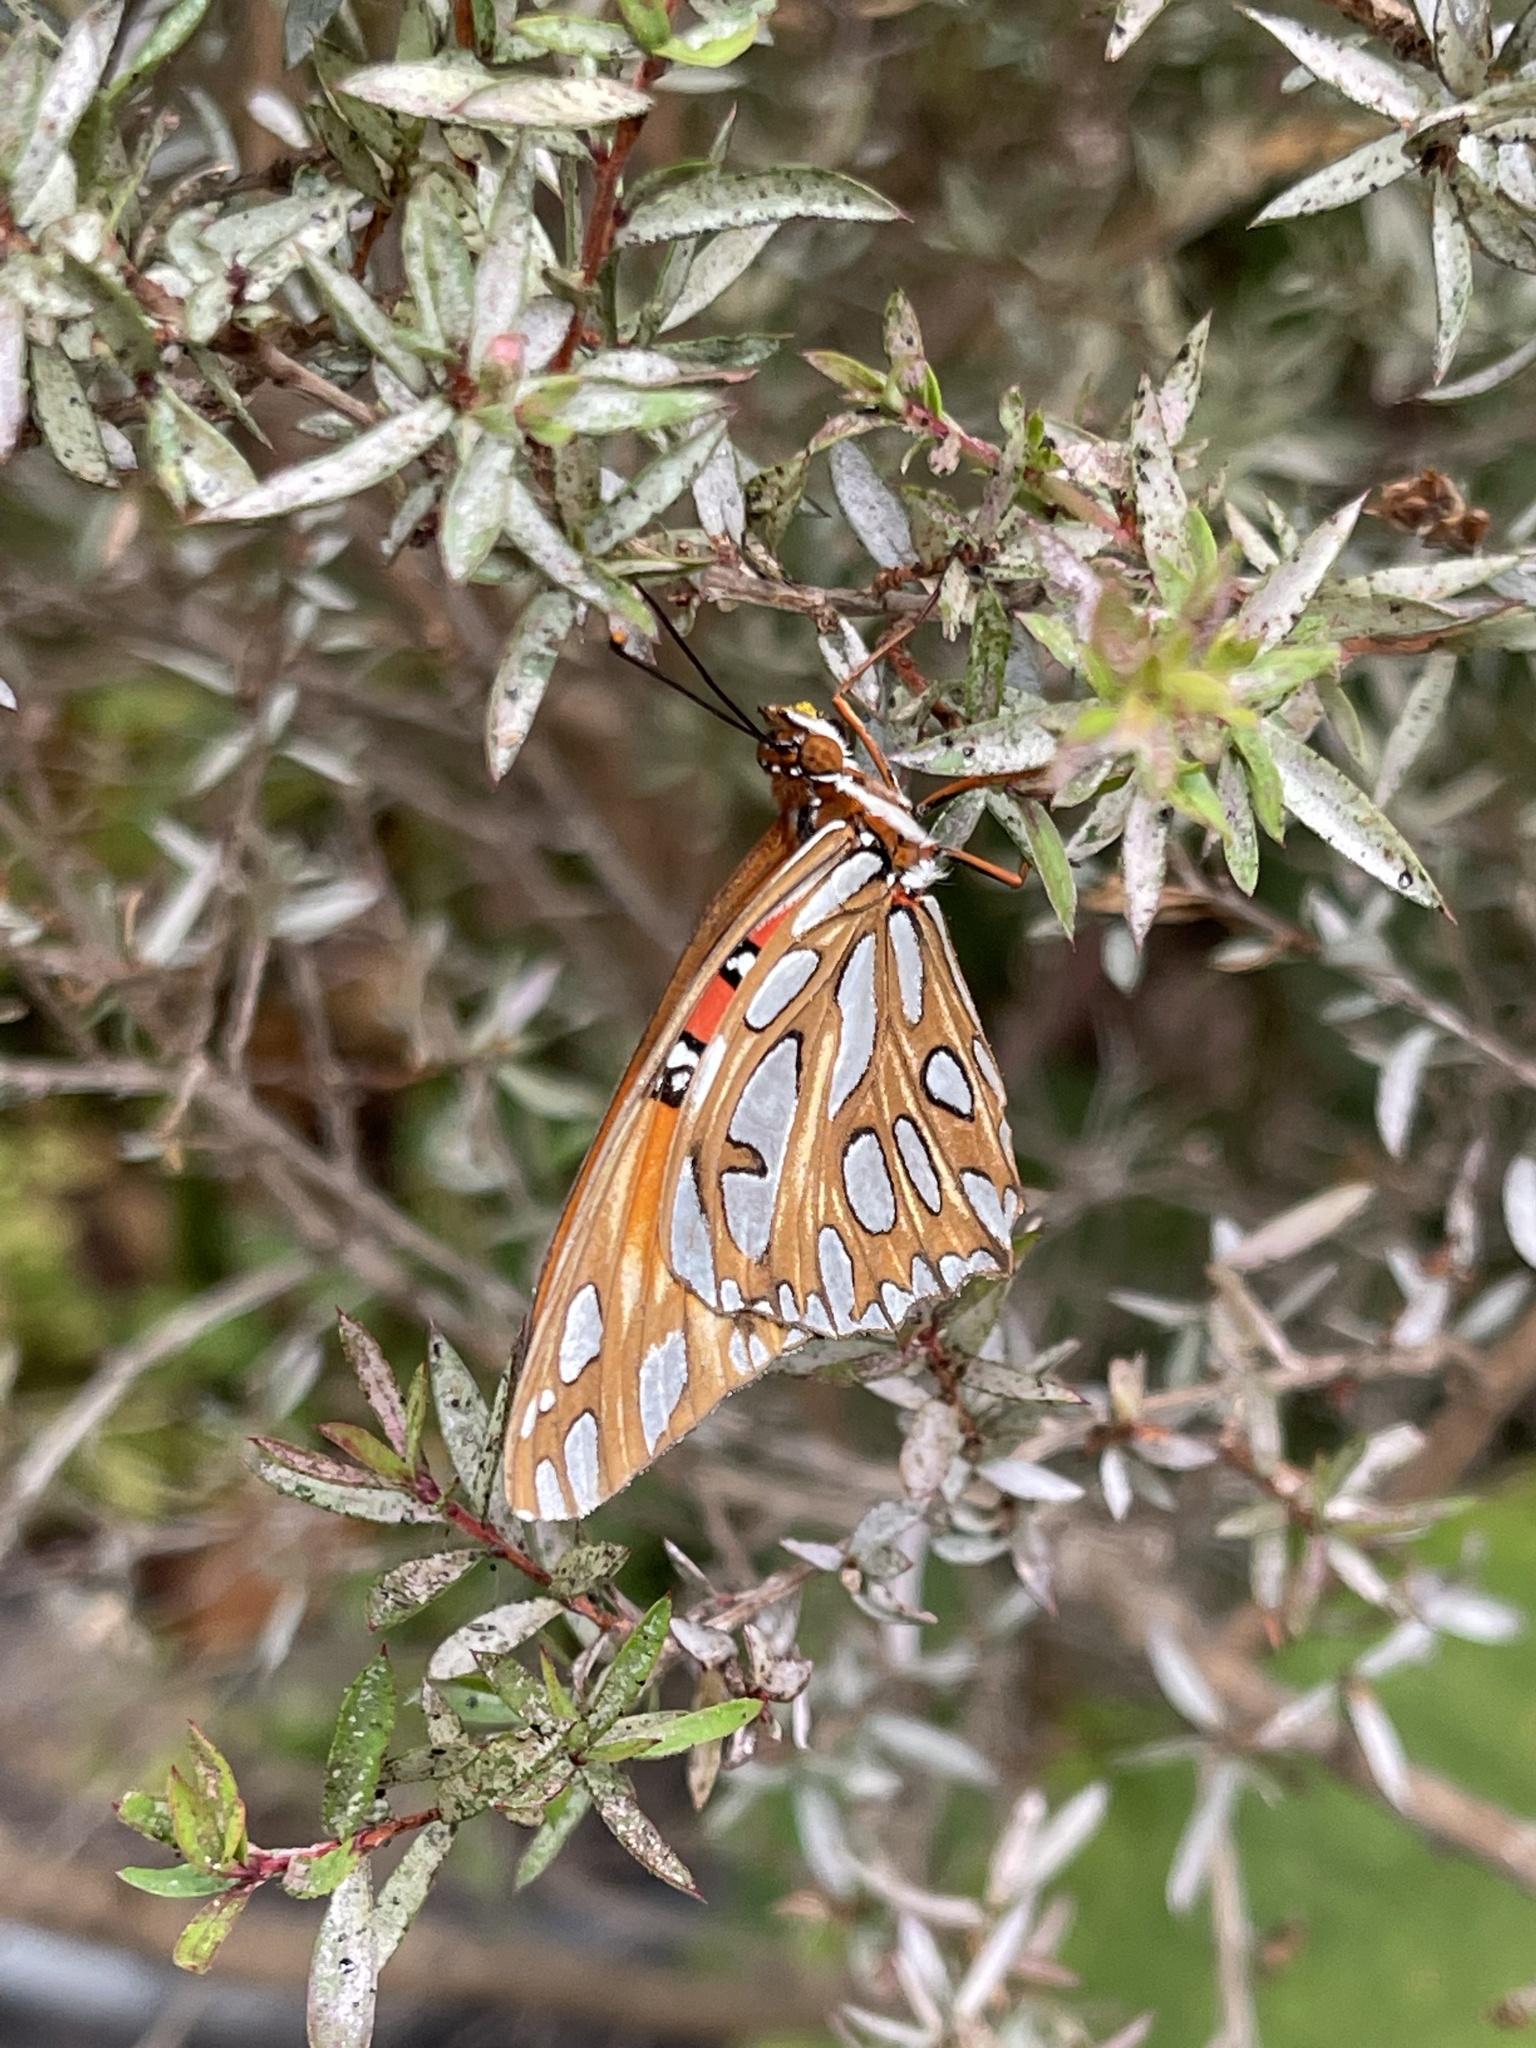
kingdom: Animalia
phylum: Arthropoda
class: Insecta
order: Lepidoptera
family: Nymphalidae
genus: Dione
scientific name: Dione vanillae
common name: Gulf fritillary
